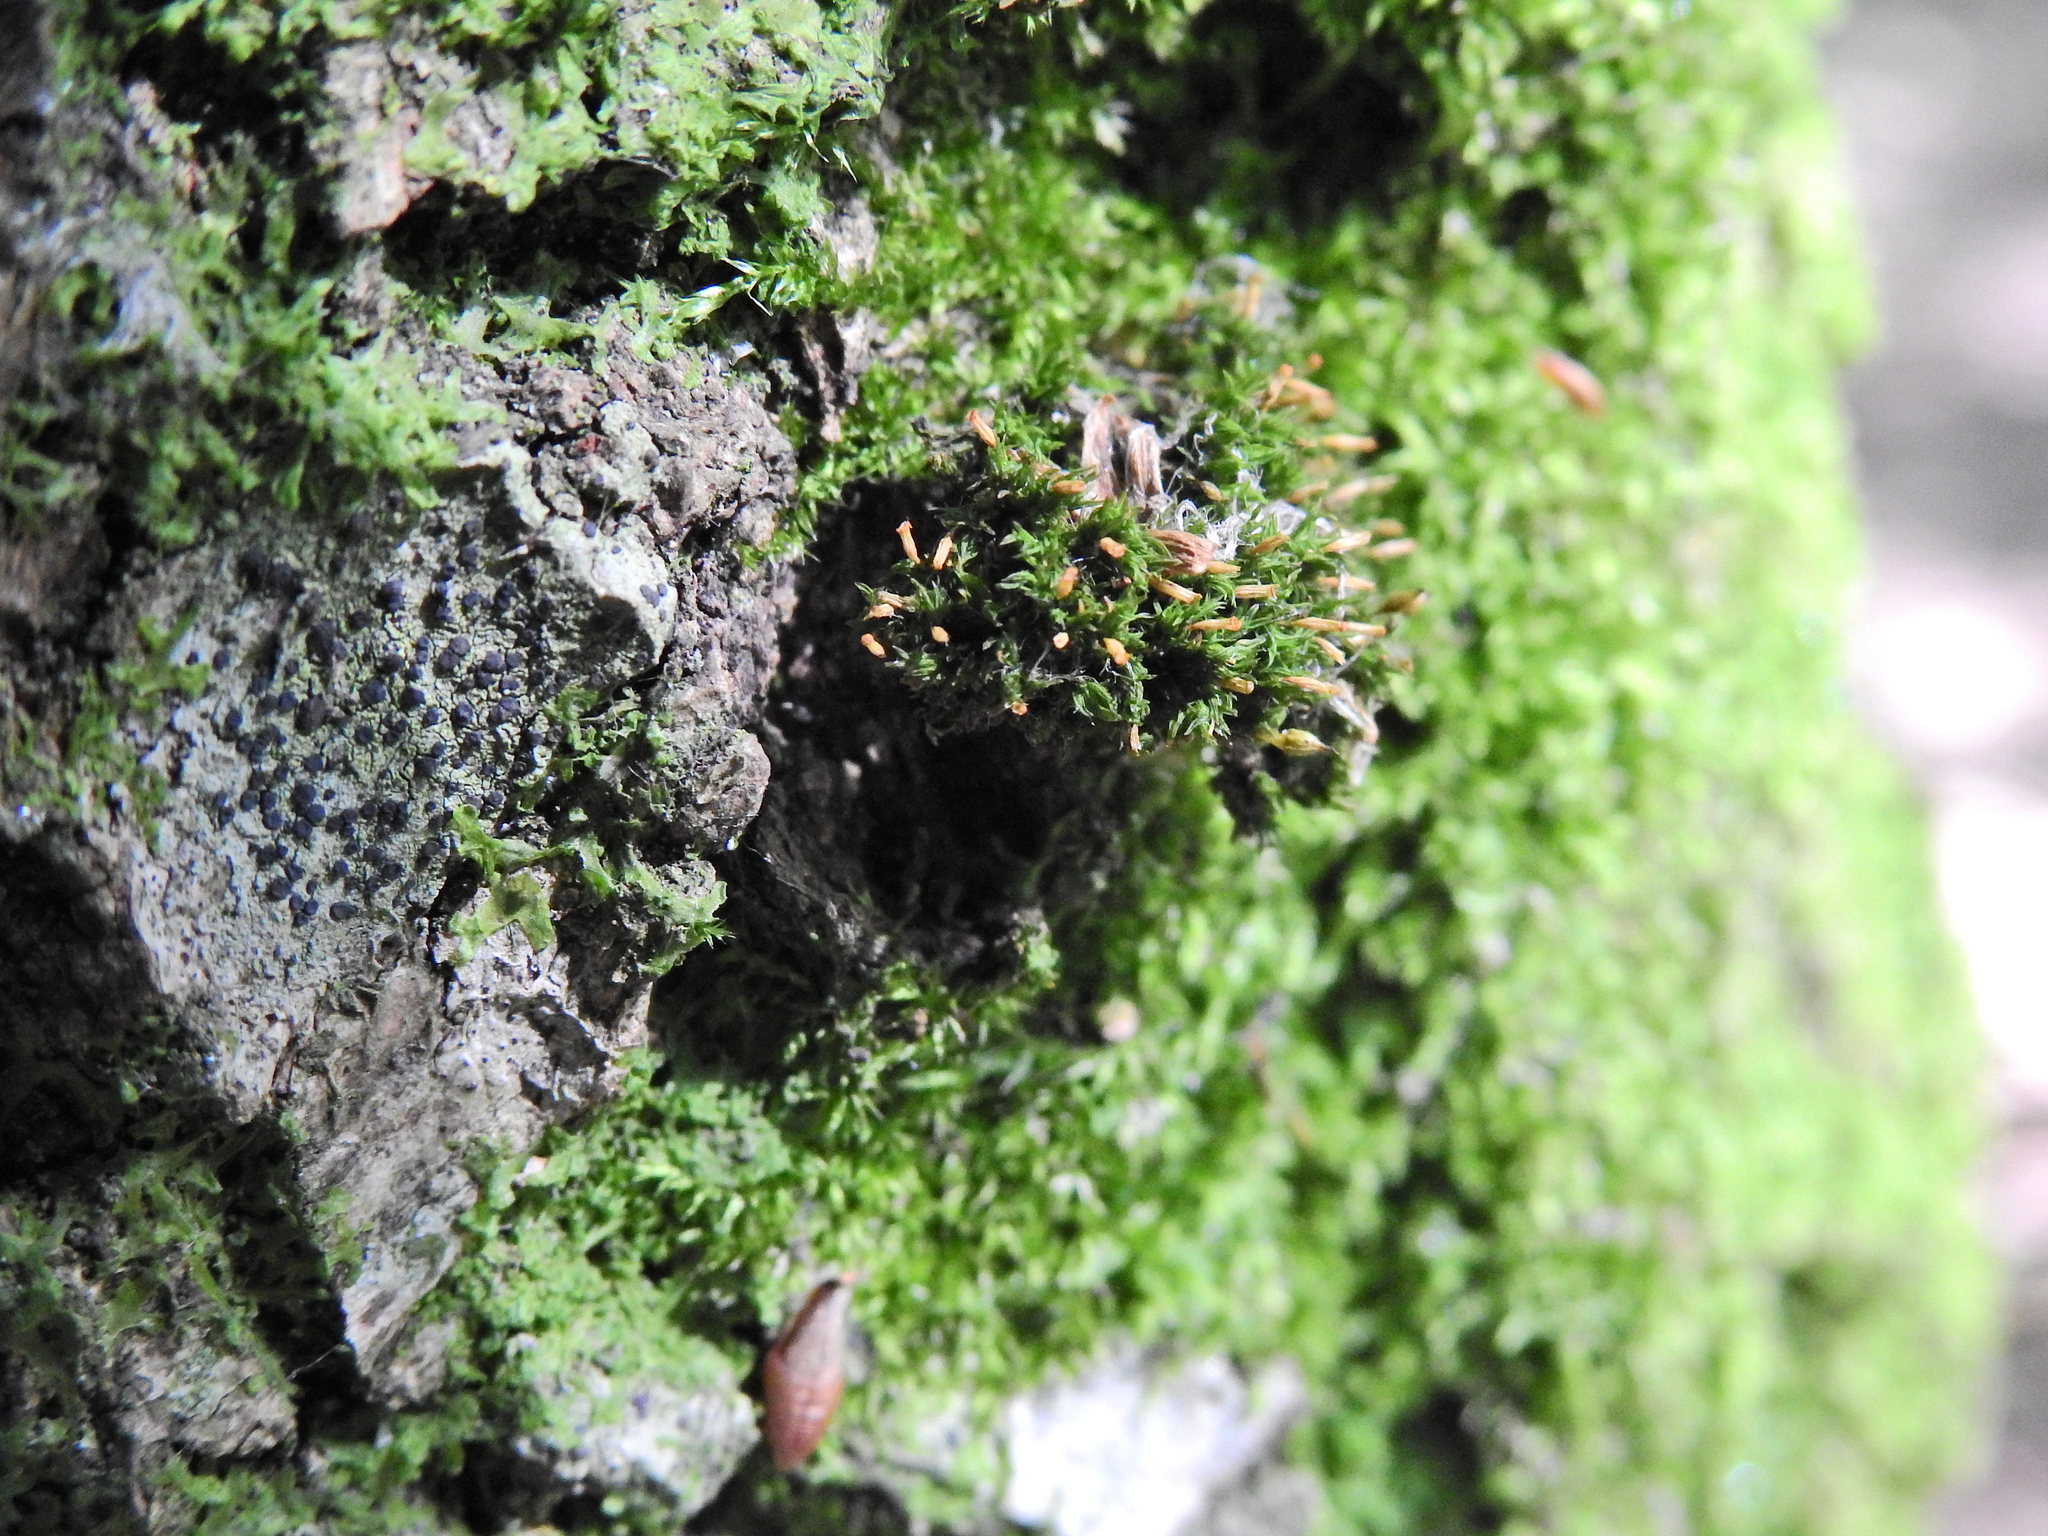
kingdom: Plantae
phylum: Bryophyta
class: Bryopsida
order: Orthotrichales
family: Orthotrichaceae
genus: Orthotrichum
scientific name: Orthotrichum pulchellum
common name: Elegant bristle-moss
